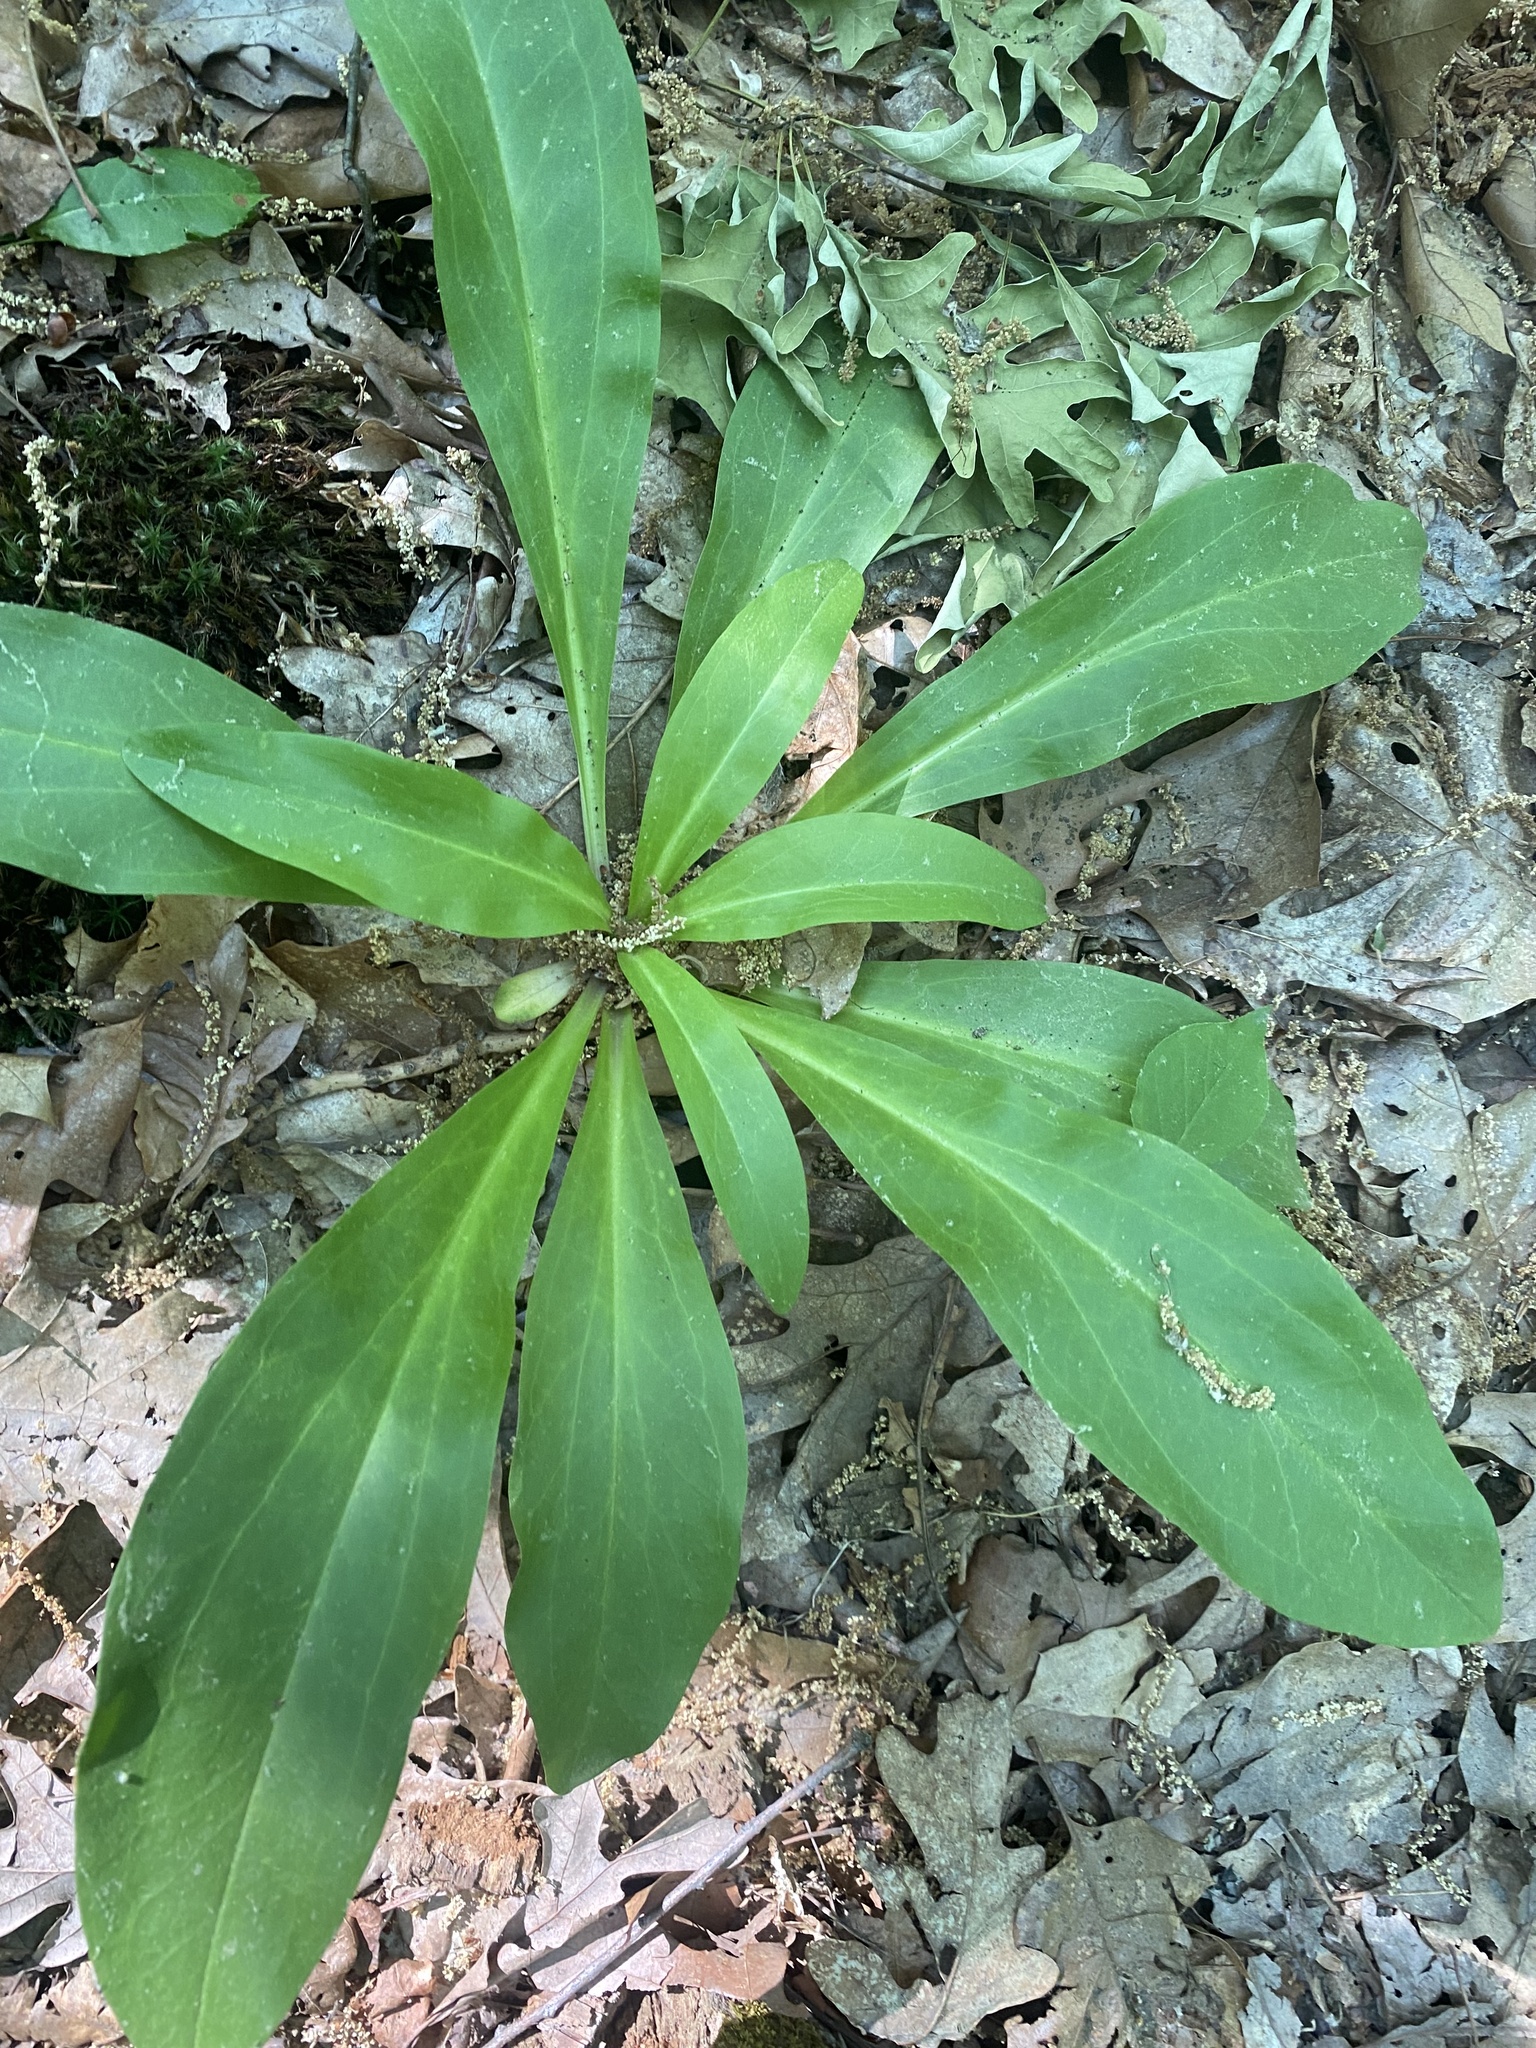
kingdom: Plantae
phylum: Tracheophyta
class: Magnoliopsida
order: Gentianales
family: Gentianaceae
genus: Frasera
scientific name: Frasera caroliniensis
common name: American columbo
